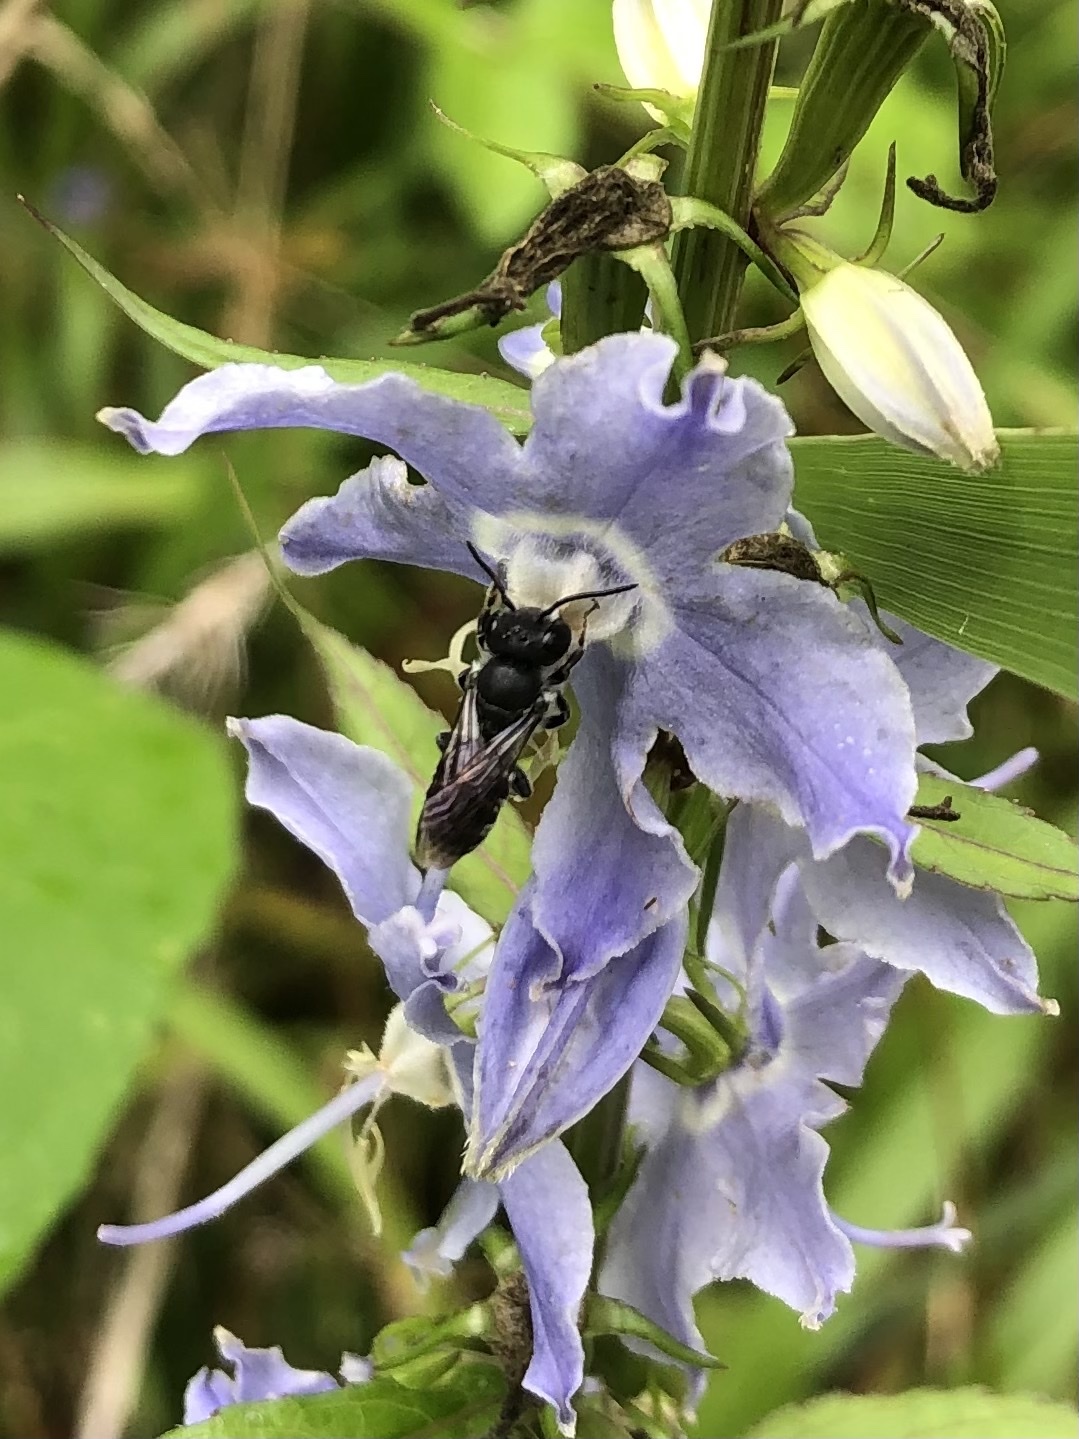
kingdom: Animalia
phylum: Arthropoda
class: Insecta
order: Hymenoptera
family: Megachilidae
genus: Megachile
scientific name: Megachile campanulae
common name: Bellflower resin bee
